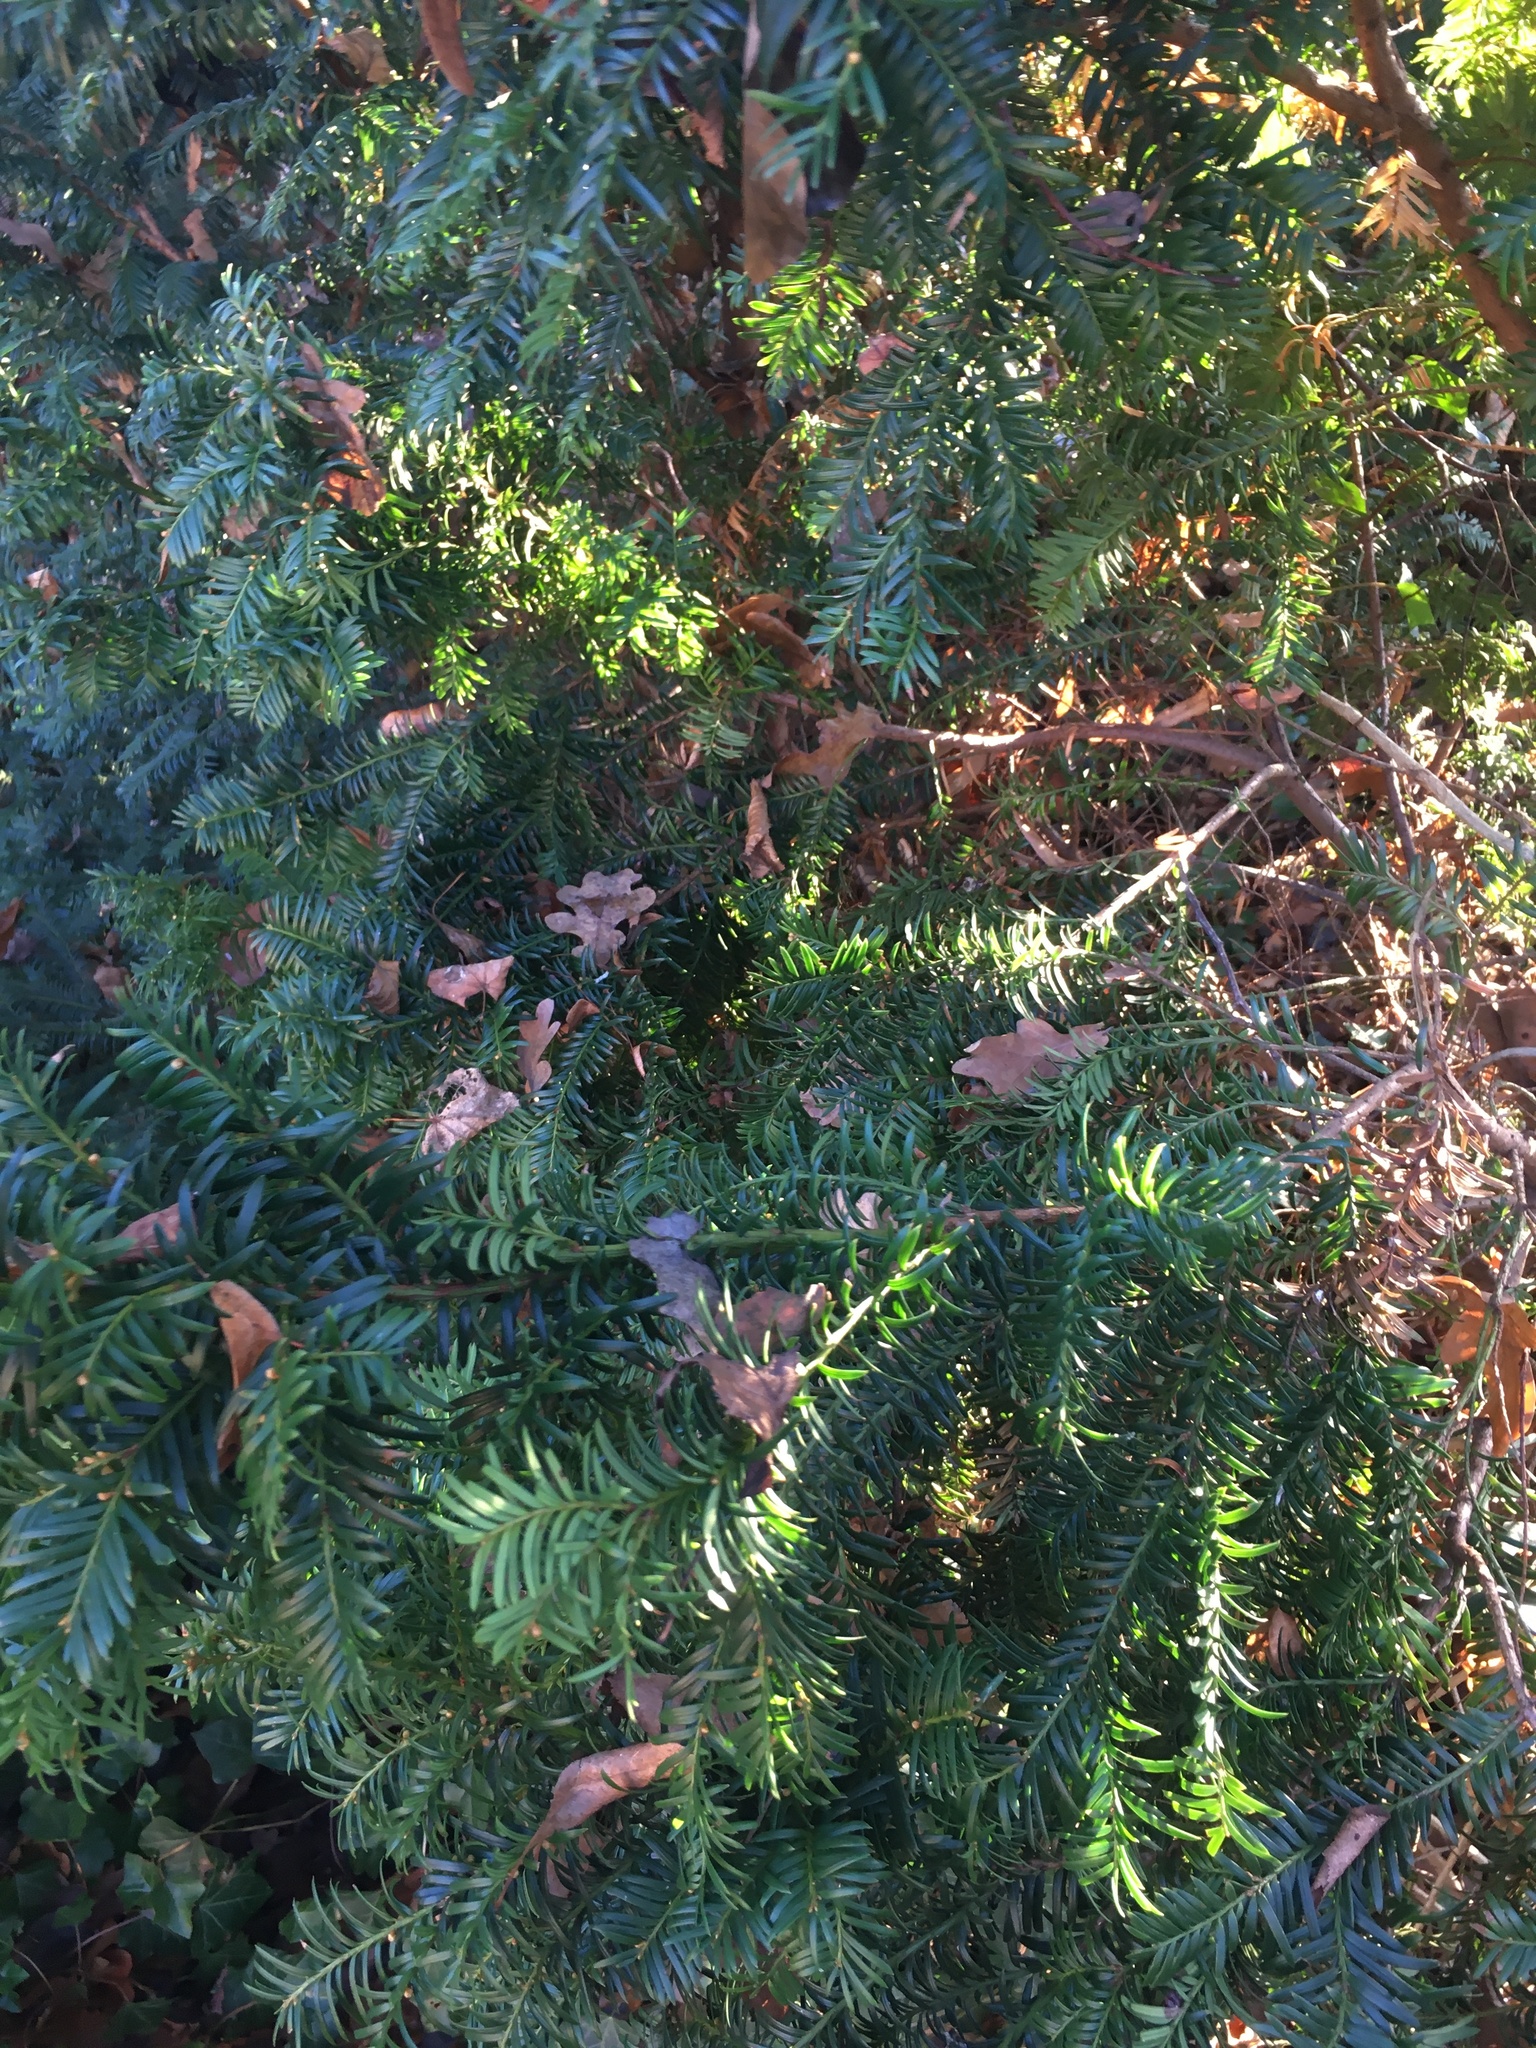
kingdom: Plantae
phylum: Tracheophyta
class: Pinopsida
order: Pinales
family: Taxaceae
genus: Taxus
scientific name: Taxus baccata
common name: Yew
